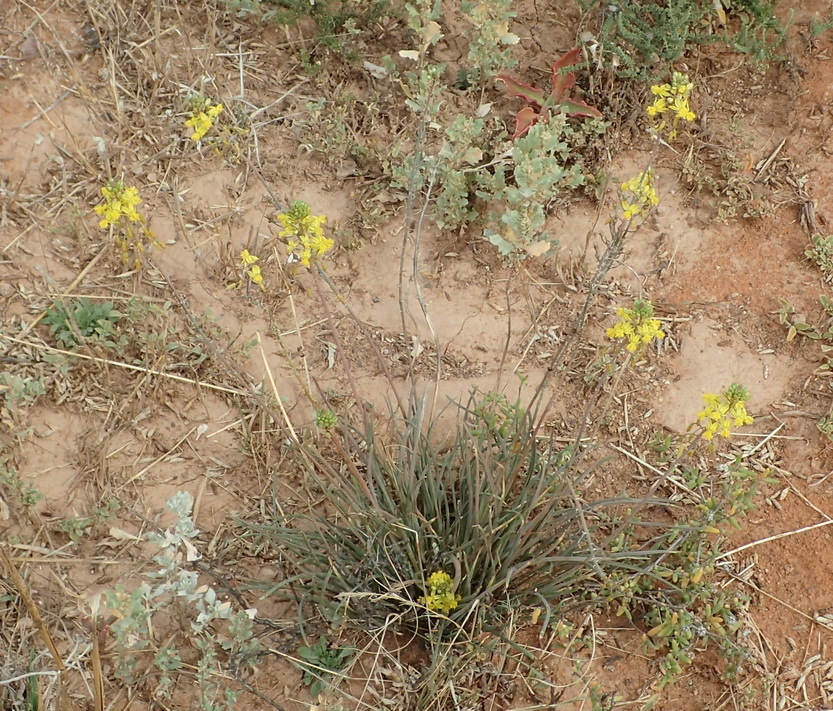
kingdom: Plantae
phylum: Tracheophyta
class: Liliopsida
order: Asparagales
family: Asphodelaceae
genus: Bulbine
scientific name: Bulbine frutescens
